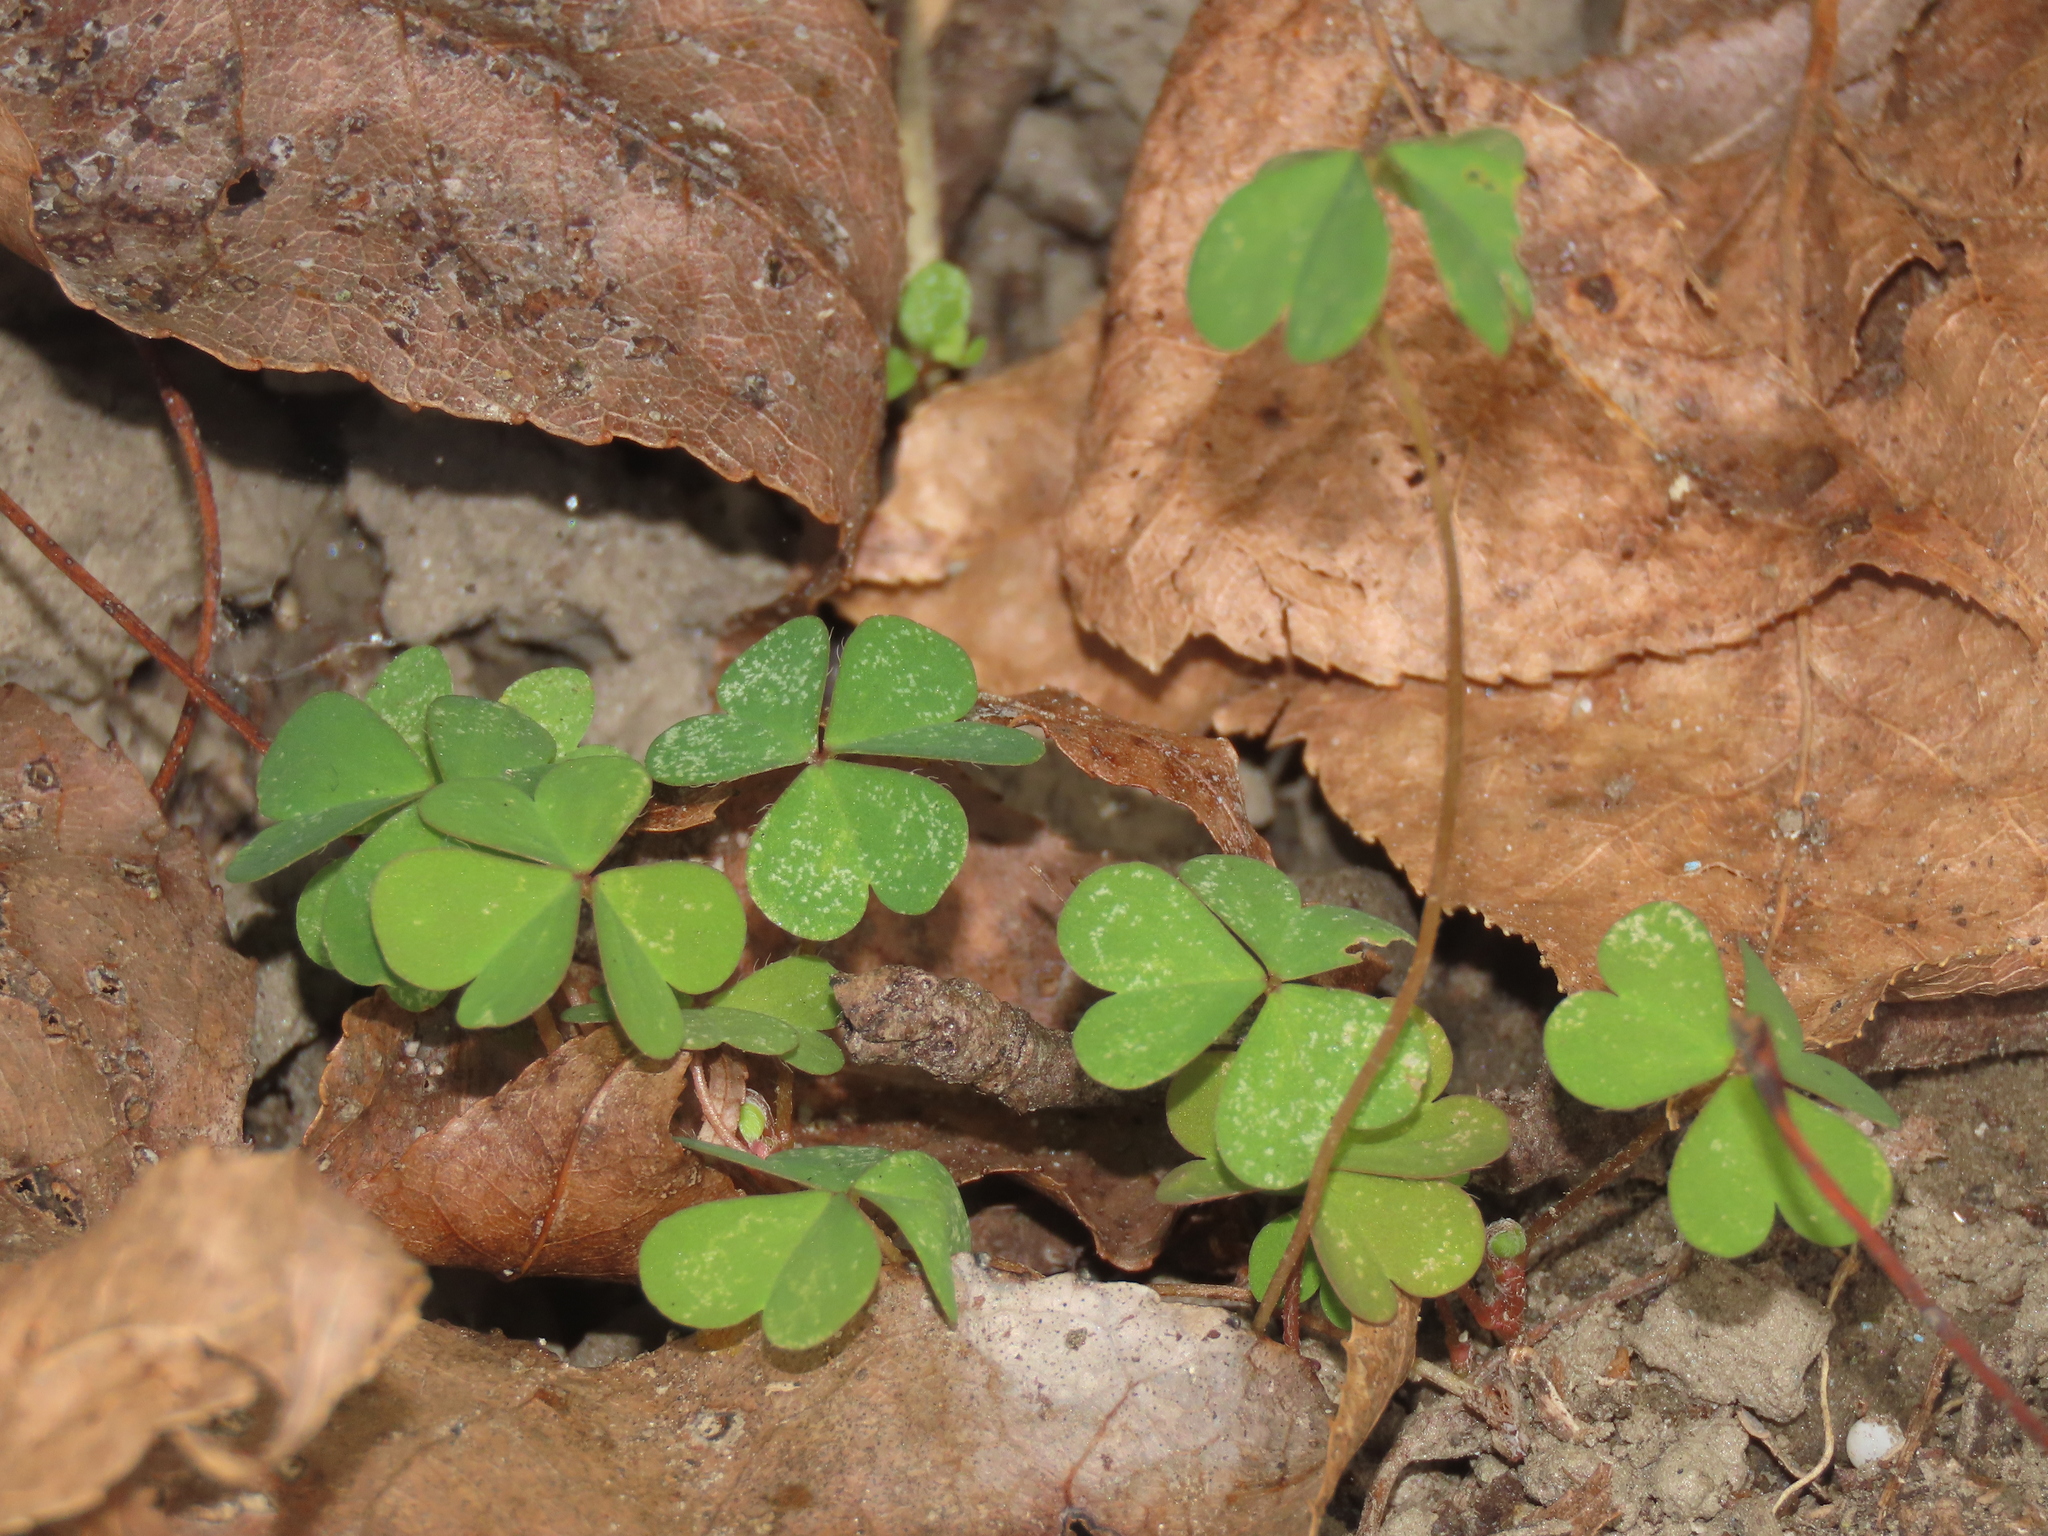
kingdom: Plantae
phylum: Tracheophyta
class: Magnoliopsida
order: Oxalidales
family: Oxalidaceae
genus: Oxalis
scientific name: Oxalis corniculata
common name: Procumbent yellow-sorrel
